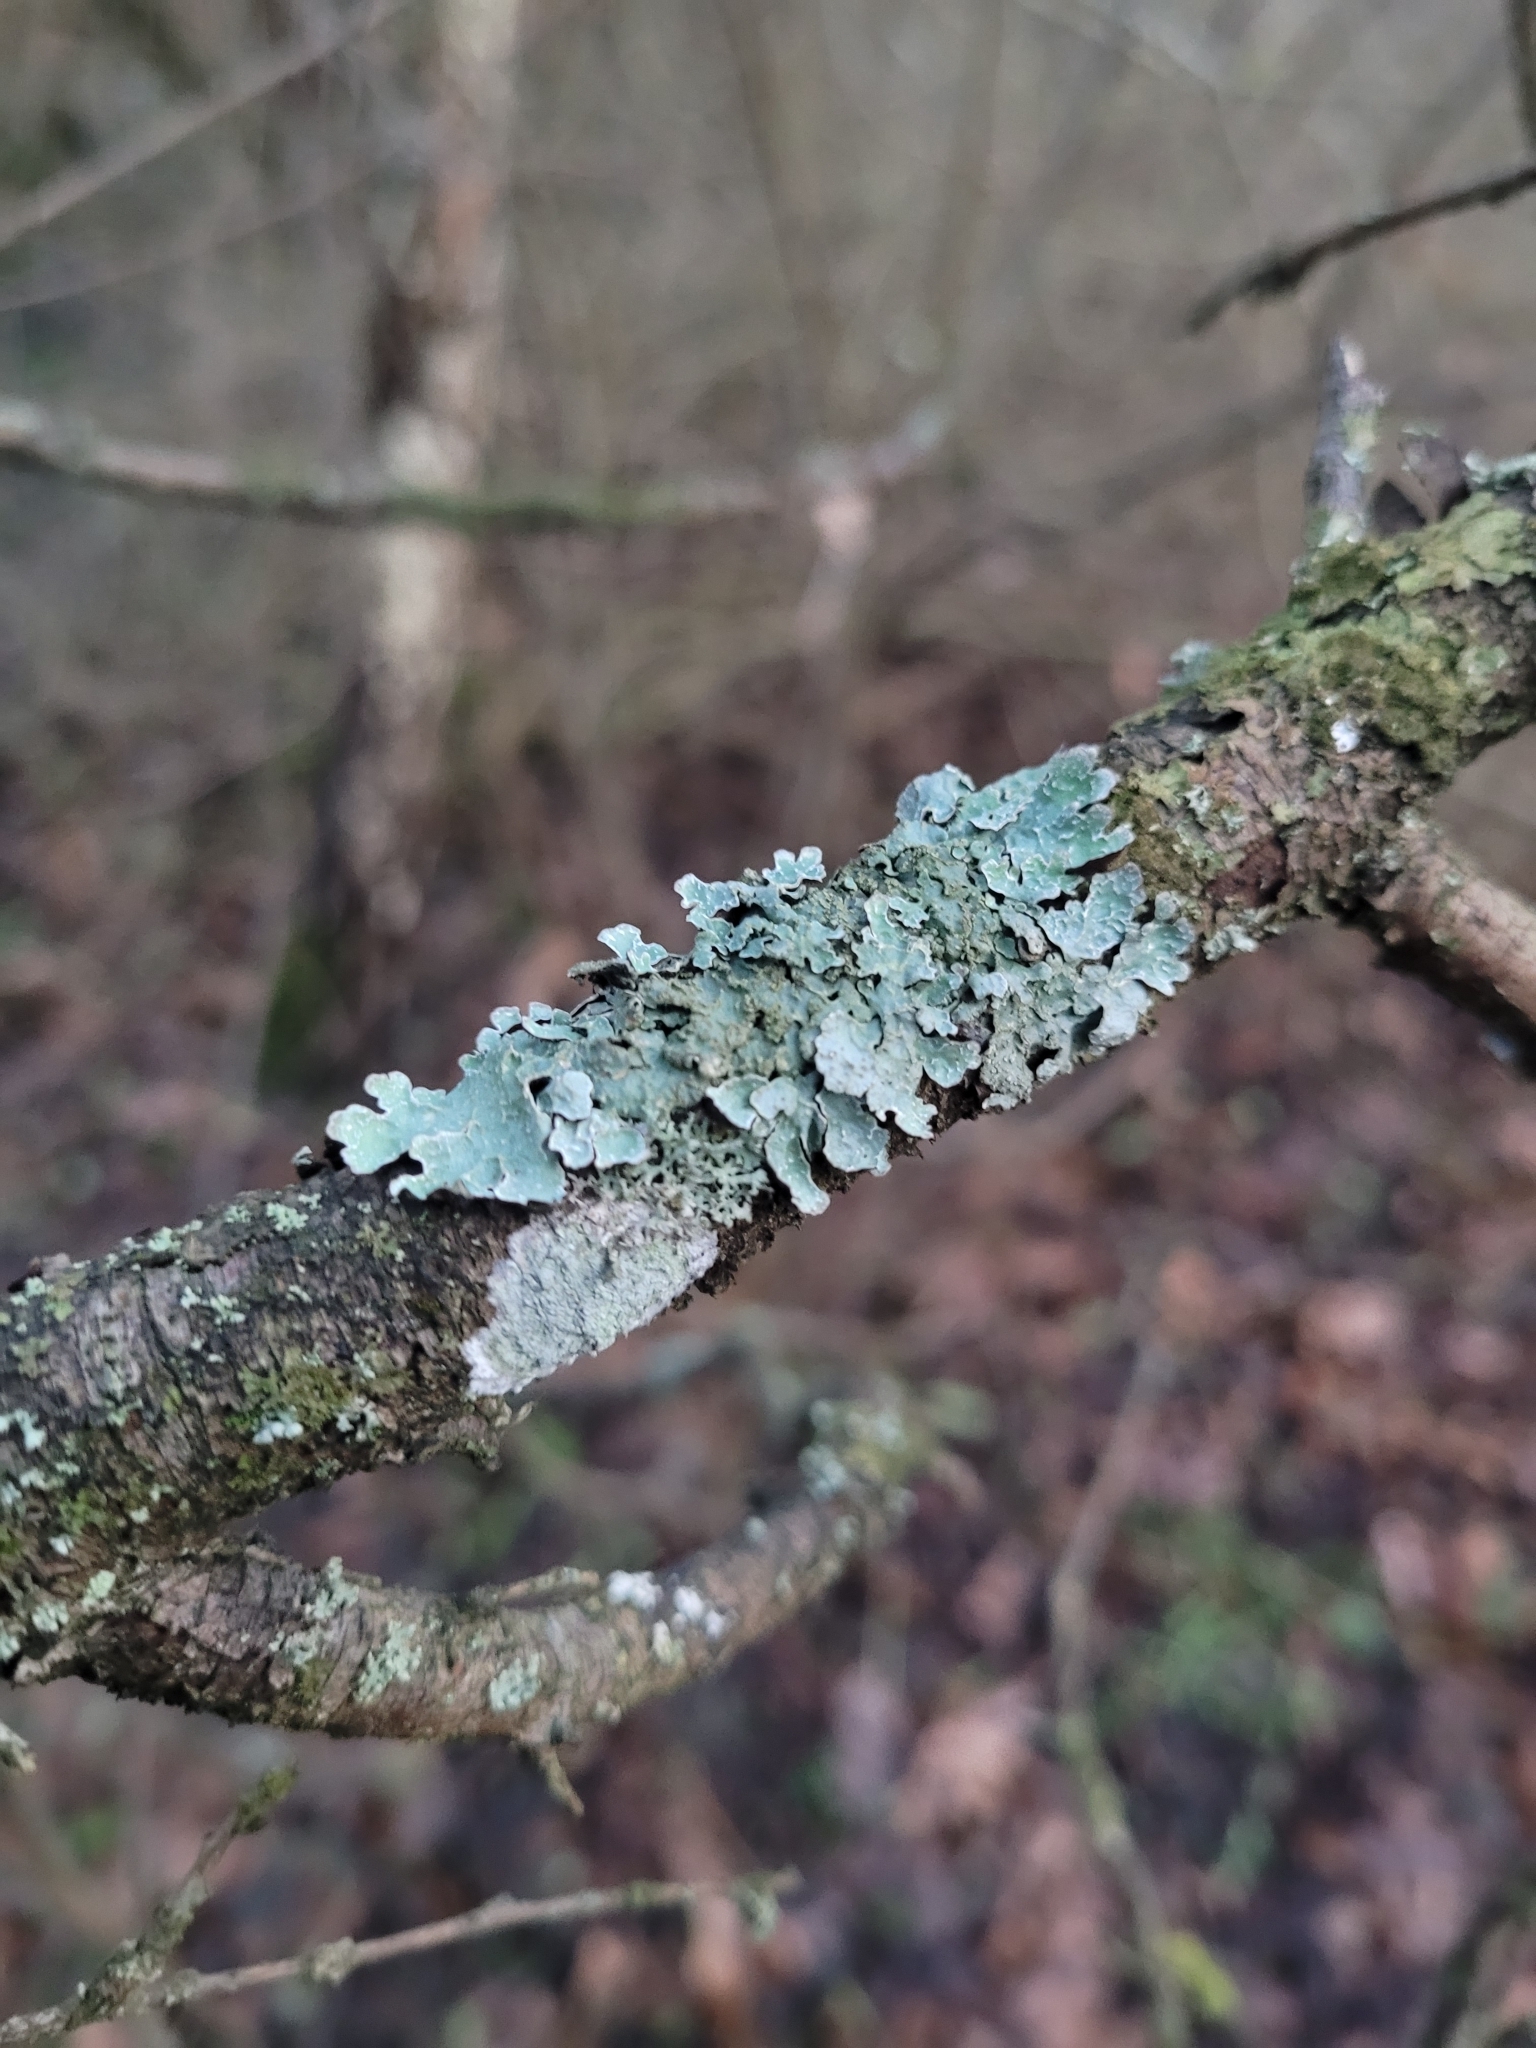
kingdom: Fungi
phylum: Ascomycota
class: Lecanoromycetes
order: Lecanorales
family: Parmeliaceae
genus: Parmelia
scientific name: Parmelia sulcata
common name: Netted shield lichen
